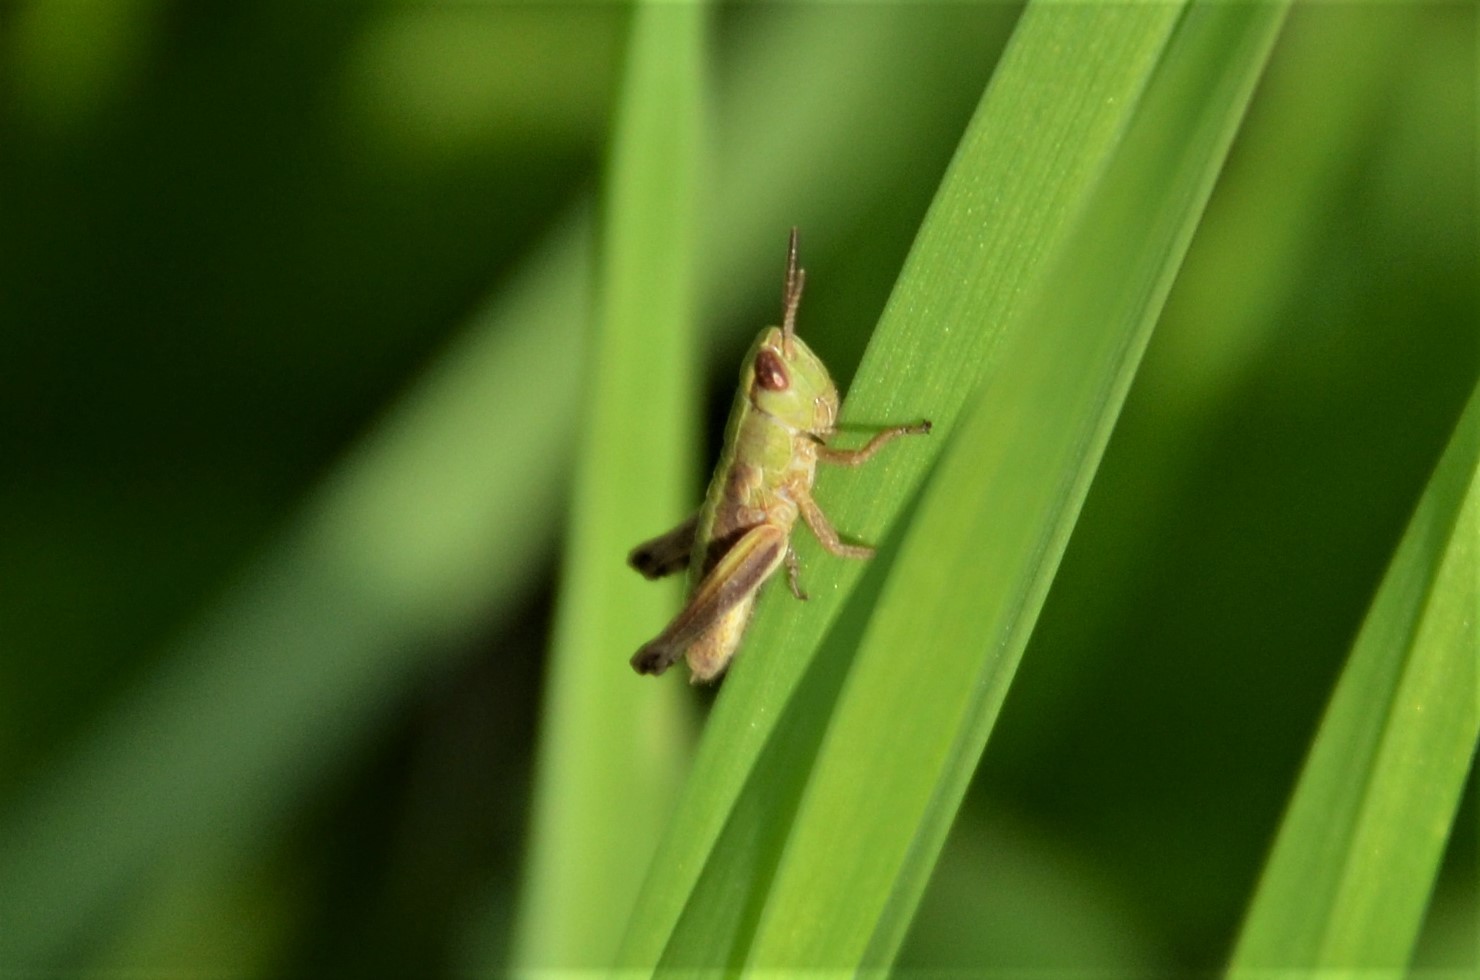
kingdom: Animalia
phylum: Arthropoda
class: Insecta
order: Orthoptera
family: Acrididae
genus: Pseudochorthippus
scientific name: Pseudochorthippus parallelus
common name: Meadow grasshopper
